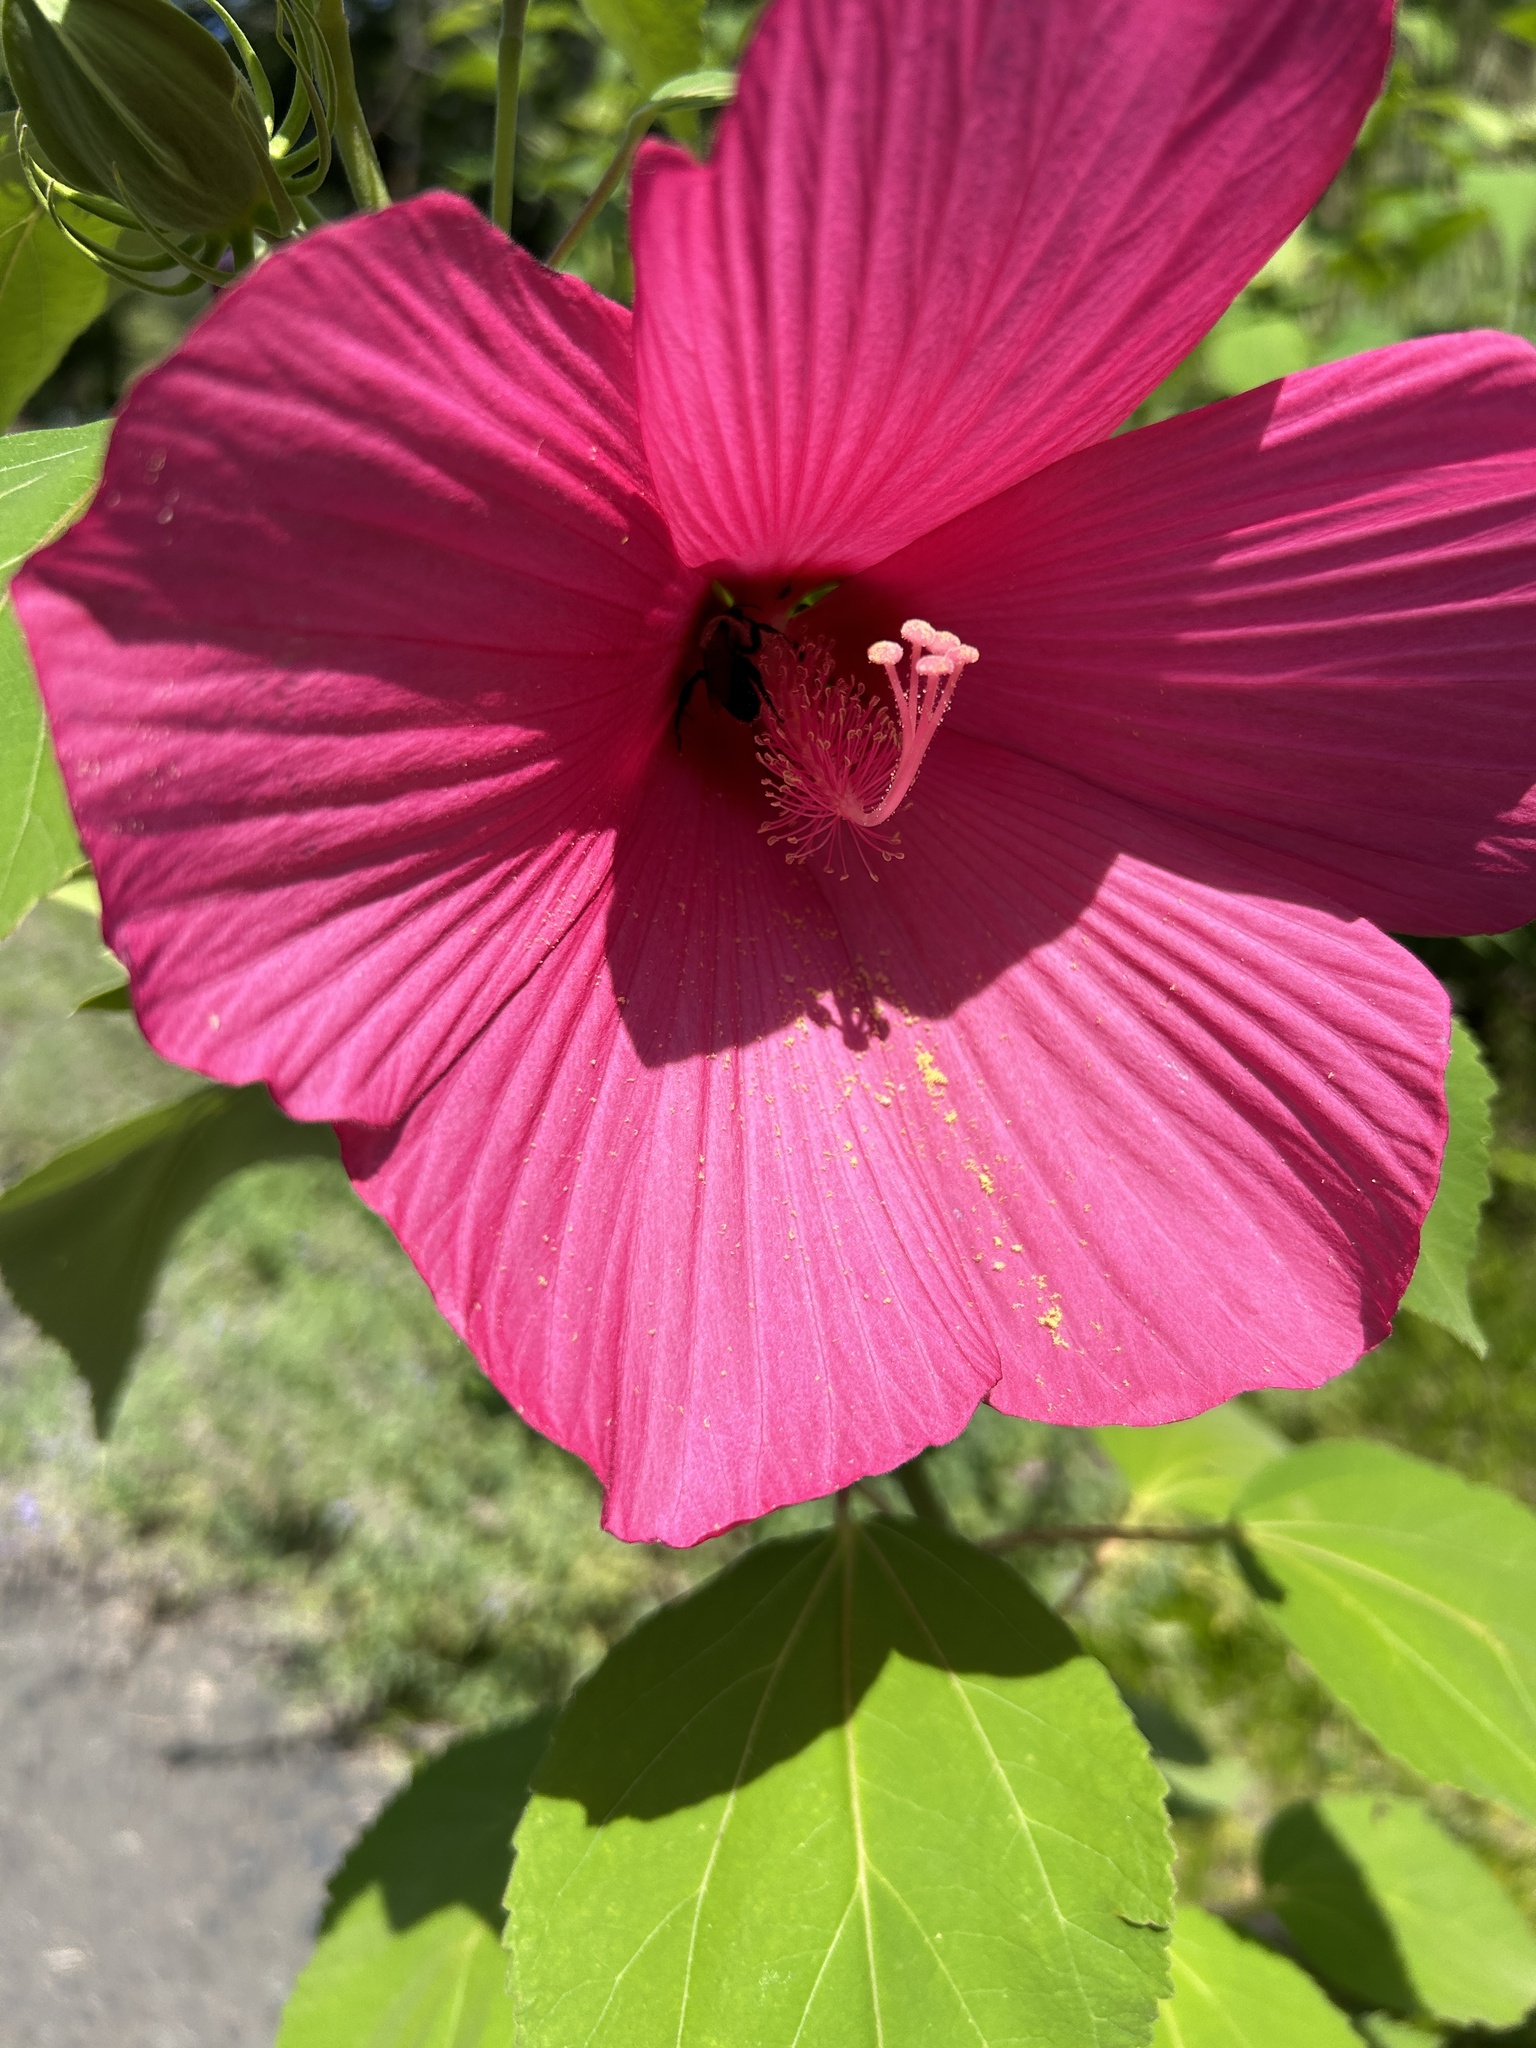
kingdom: Animalia
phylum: Arthropoda
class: Insecta
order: Hymenoptera
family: Apidae
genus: Ptilothrix
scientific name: Ptilothrix bombiformis
